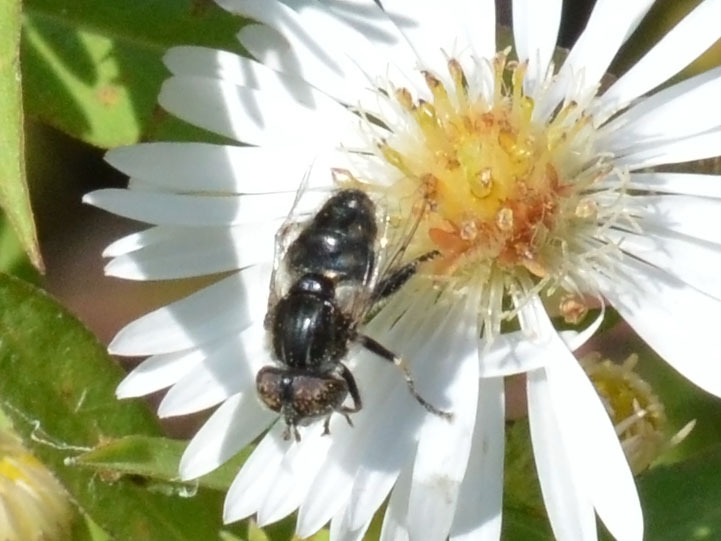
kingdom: Animalia
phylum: Arthropoda
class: Insecta
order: Diptera
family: Syrphidae
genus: Eristalinus
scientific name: Eristalinus sepulchralis
